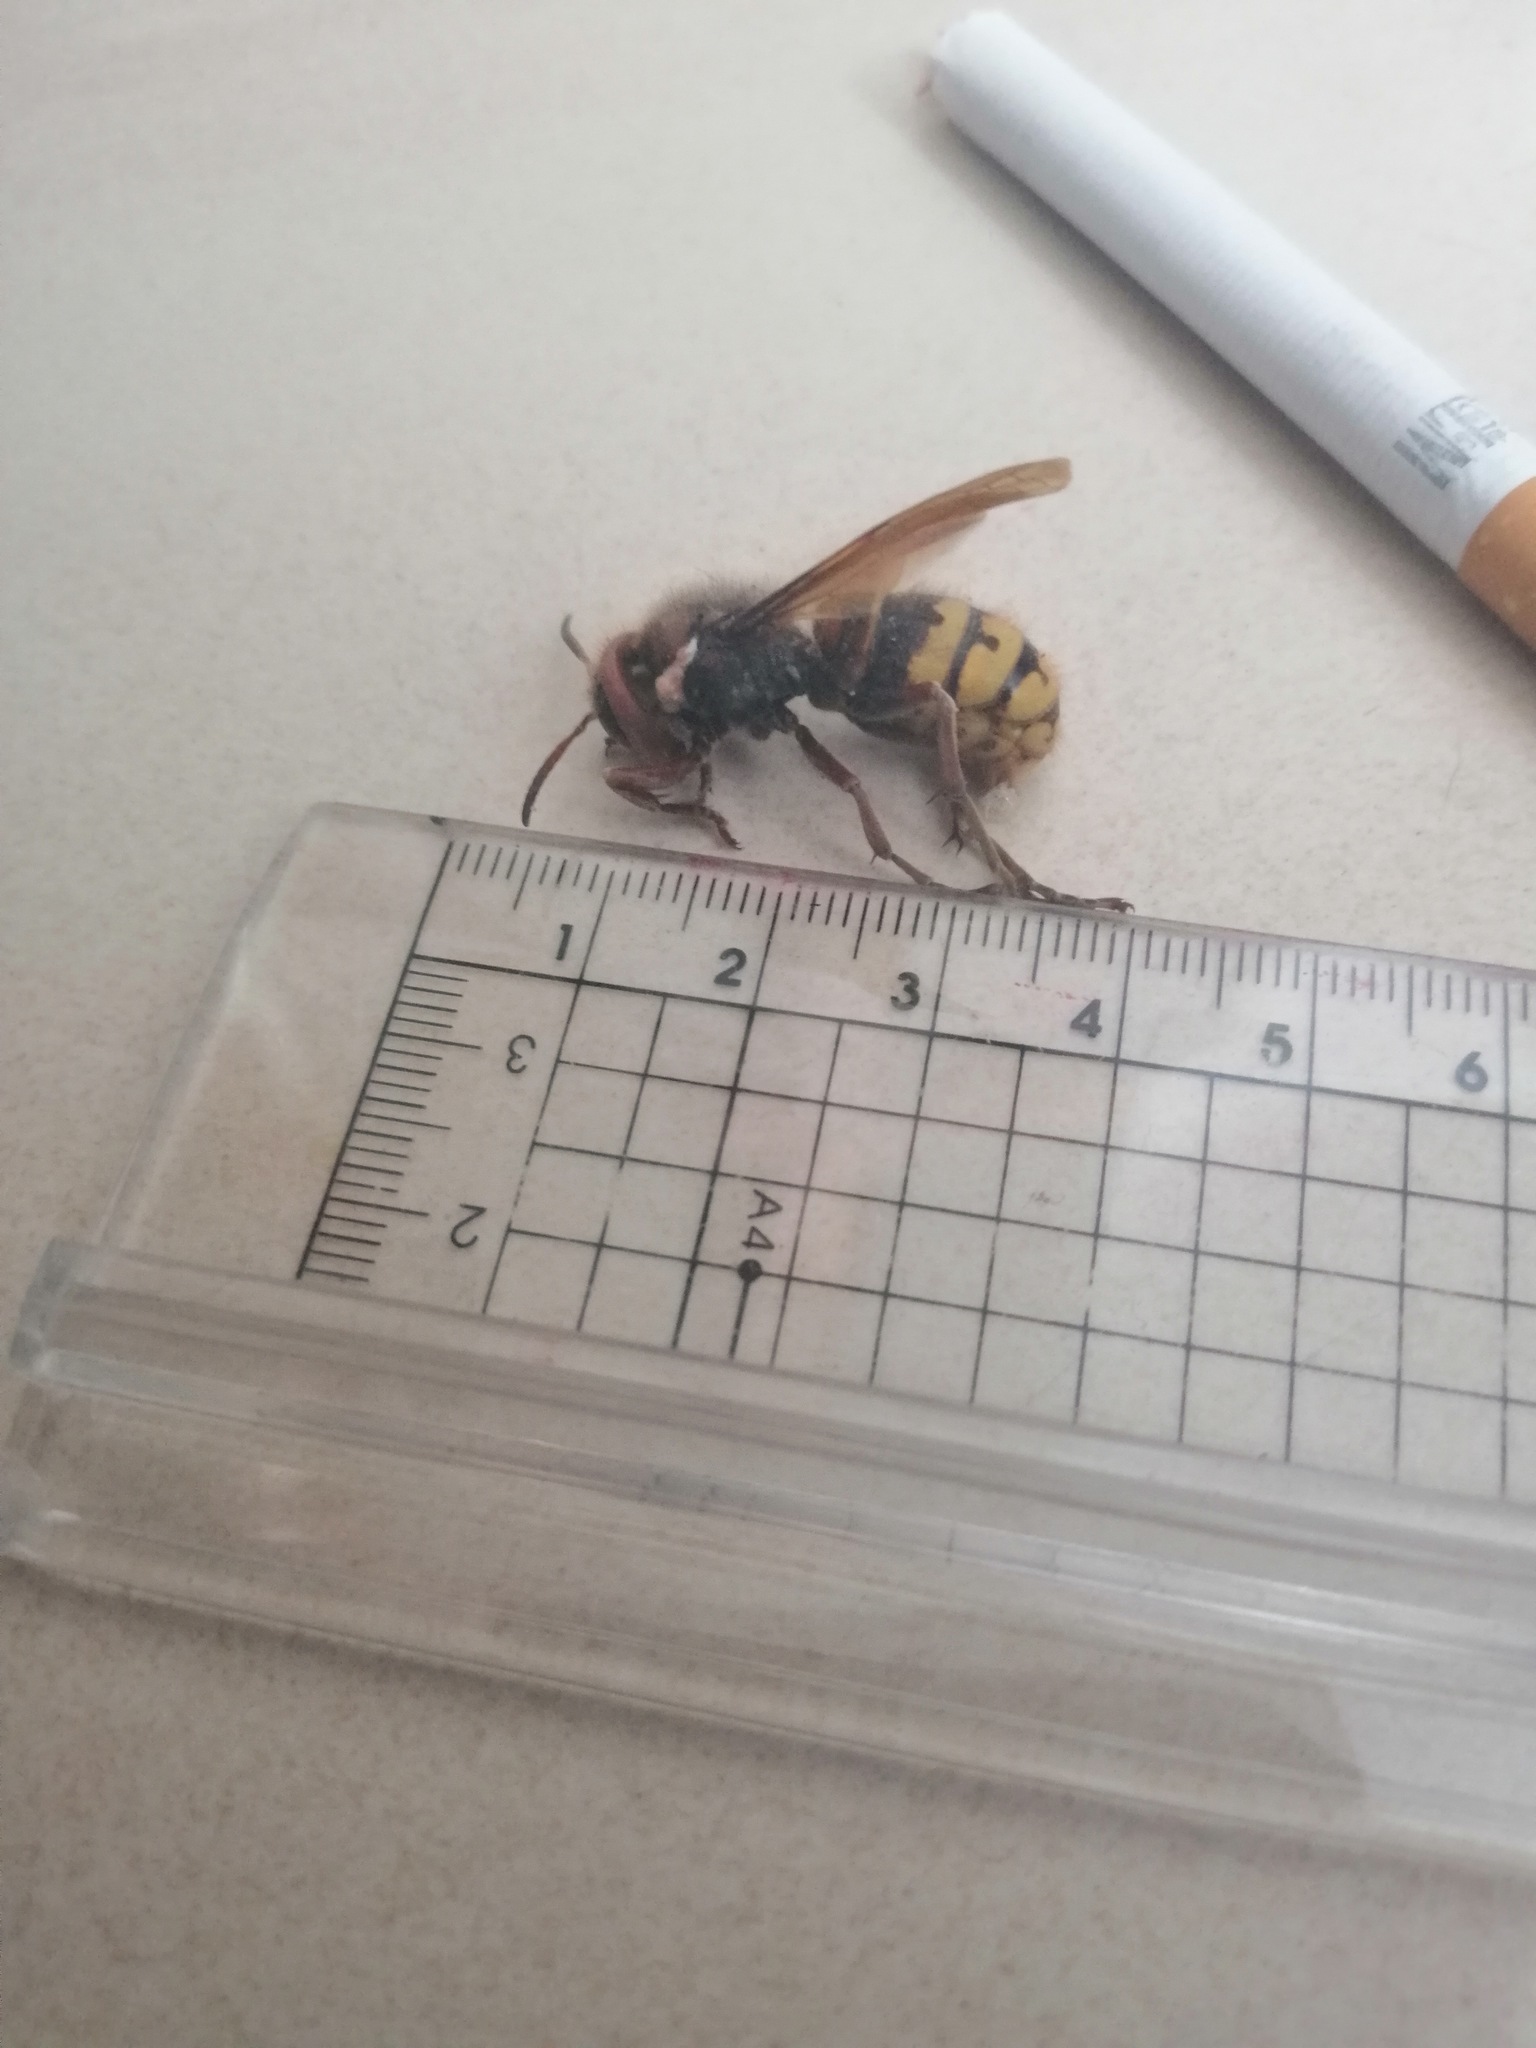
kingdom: Animalia
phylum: Arthropoda
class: Insecta
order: Hymenoptera
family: Vespidae
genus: Vespa
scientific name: Vespa crabro
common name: Hornet
